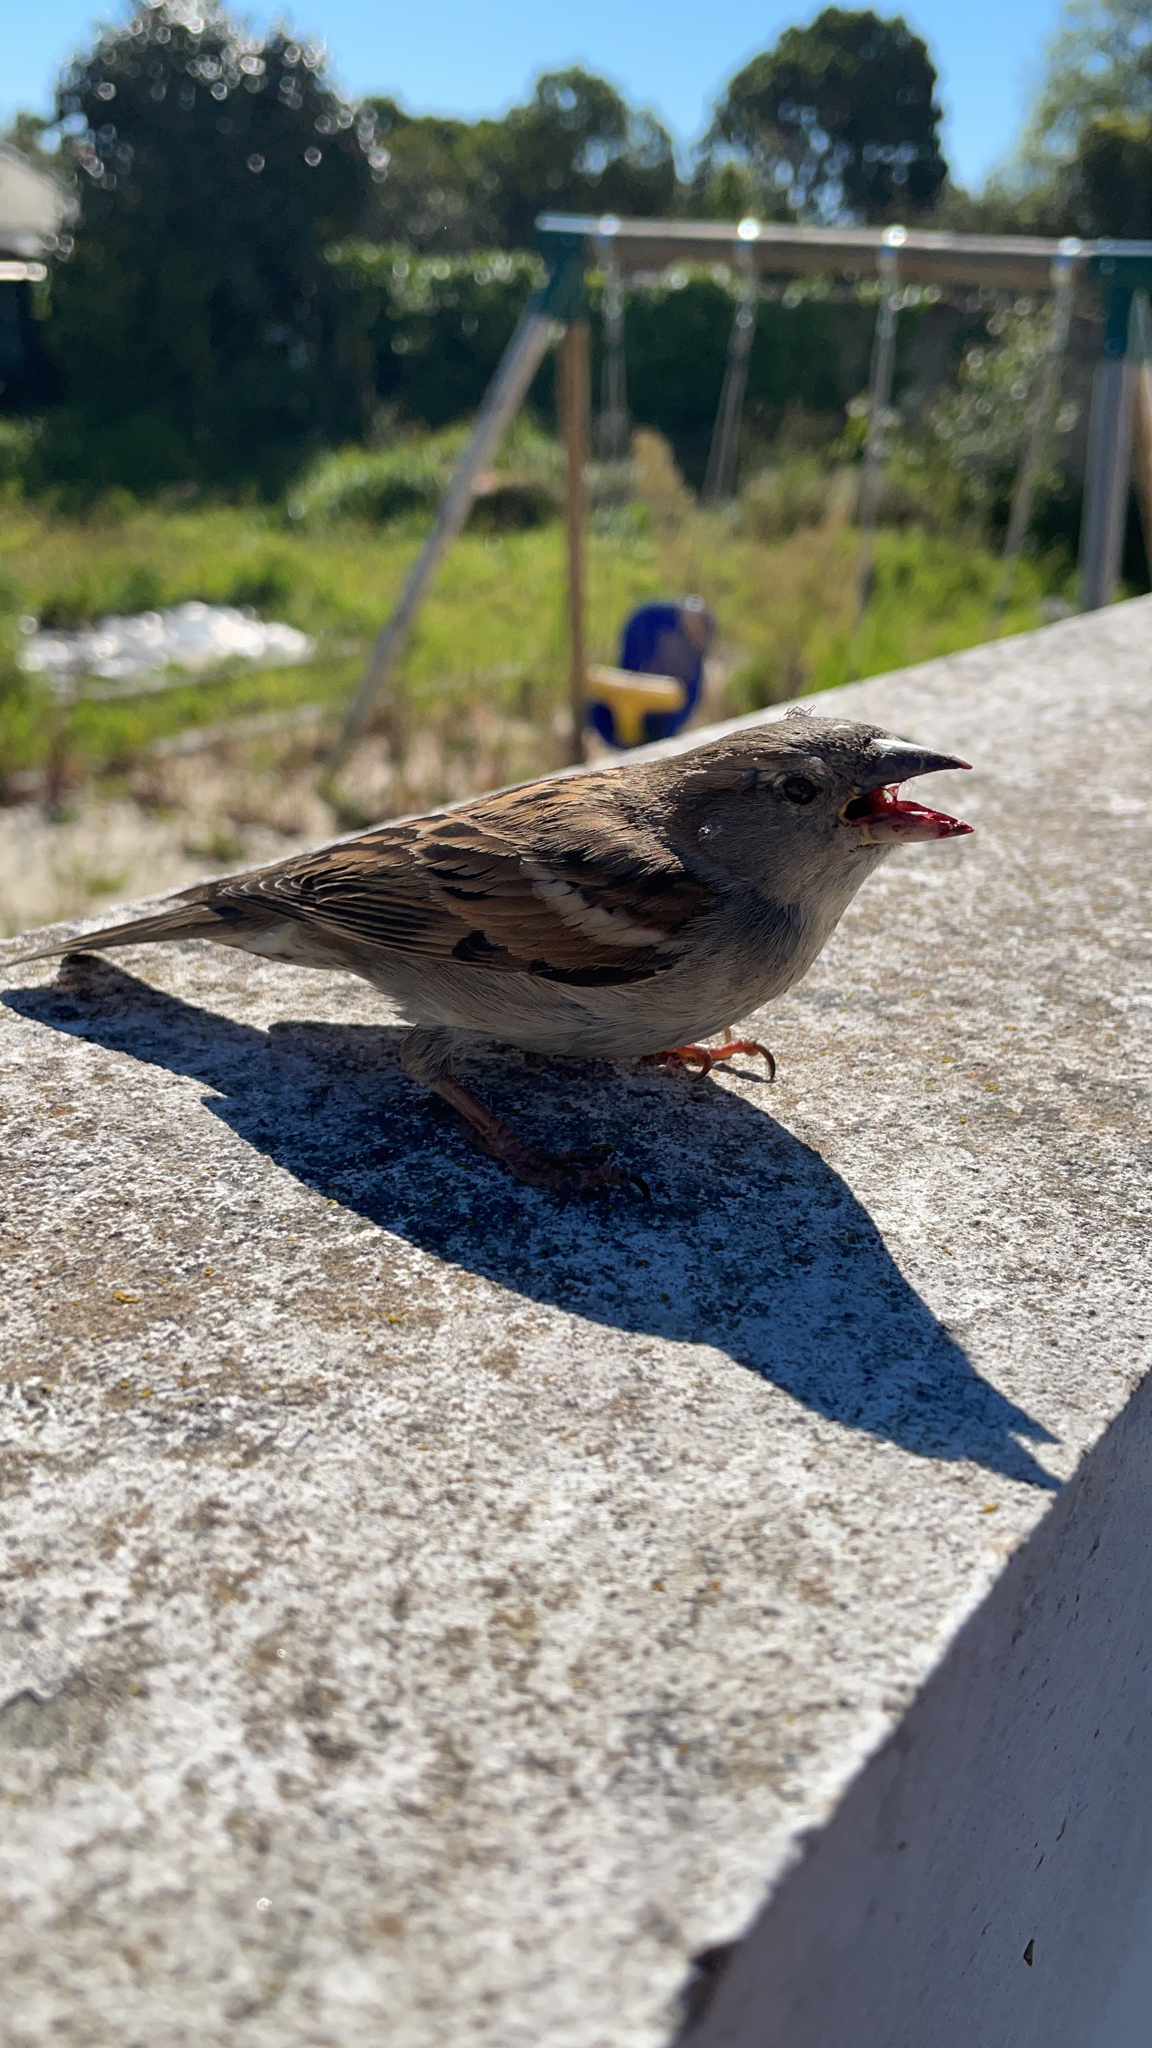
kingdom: Animalia
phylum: Chordata
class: Aves
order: Passeriformes
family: Passeridae
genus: Passer
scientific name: Passer domesticus
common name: House sparrow
